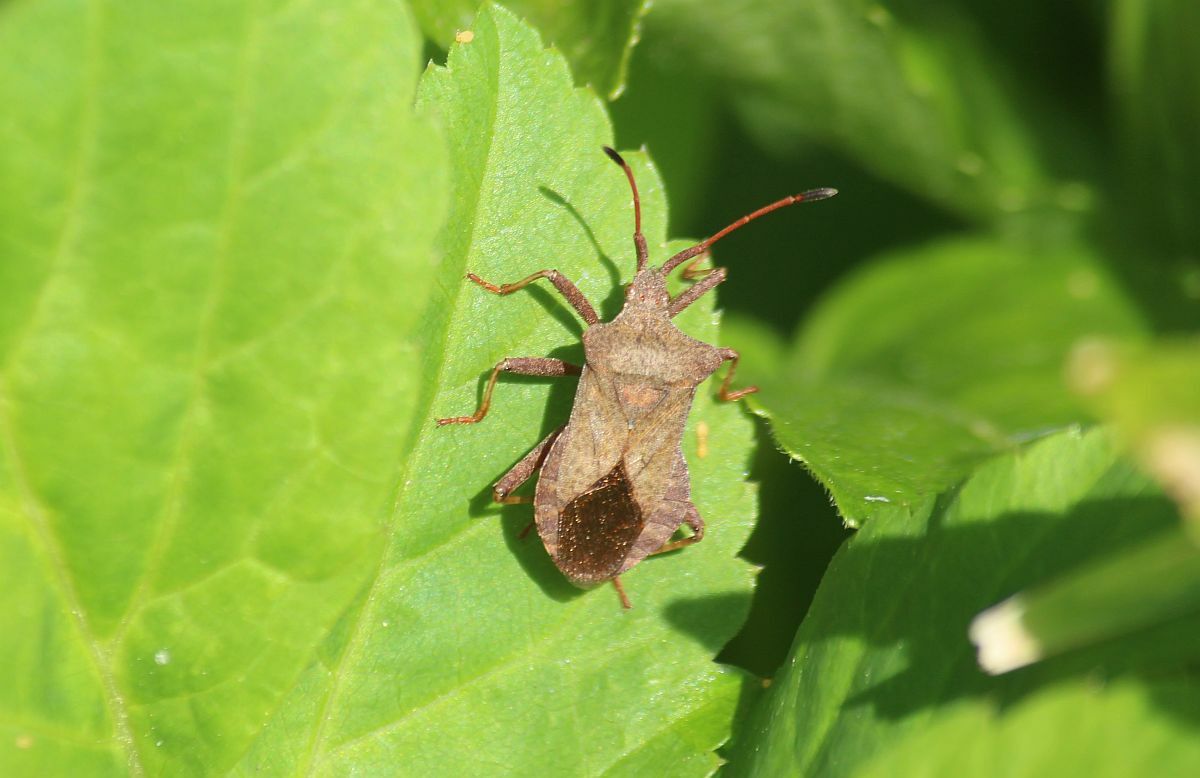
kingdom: Animalia
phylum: Arthropoda
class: Insecta
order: Hemiptera
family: Coreidae
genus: Coreus
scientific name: Coreus marginatus
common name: Dock bug
